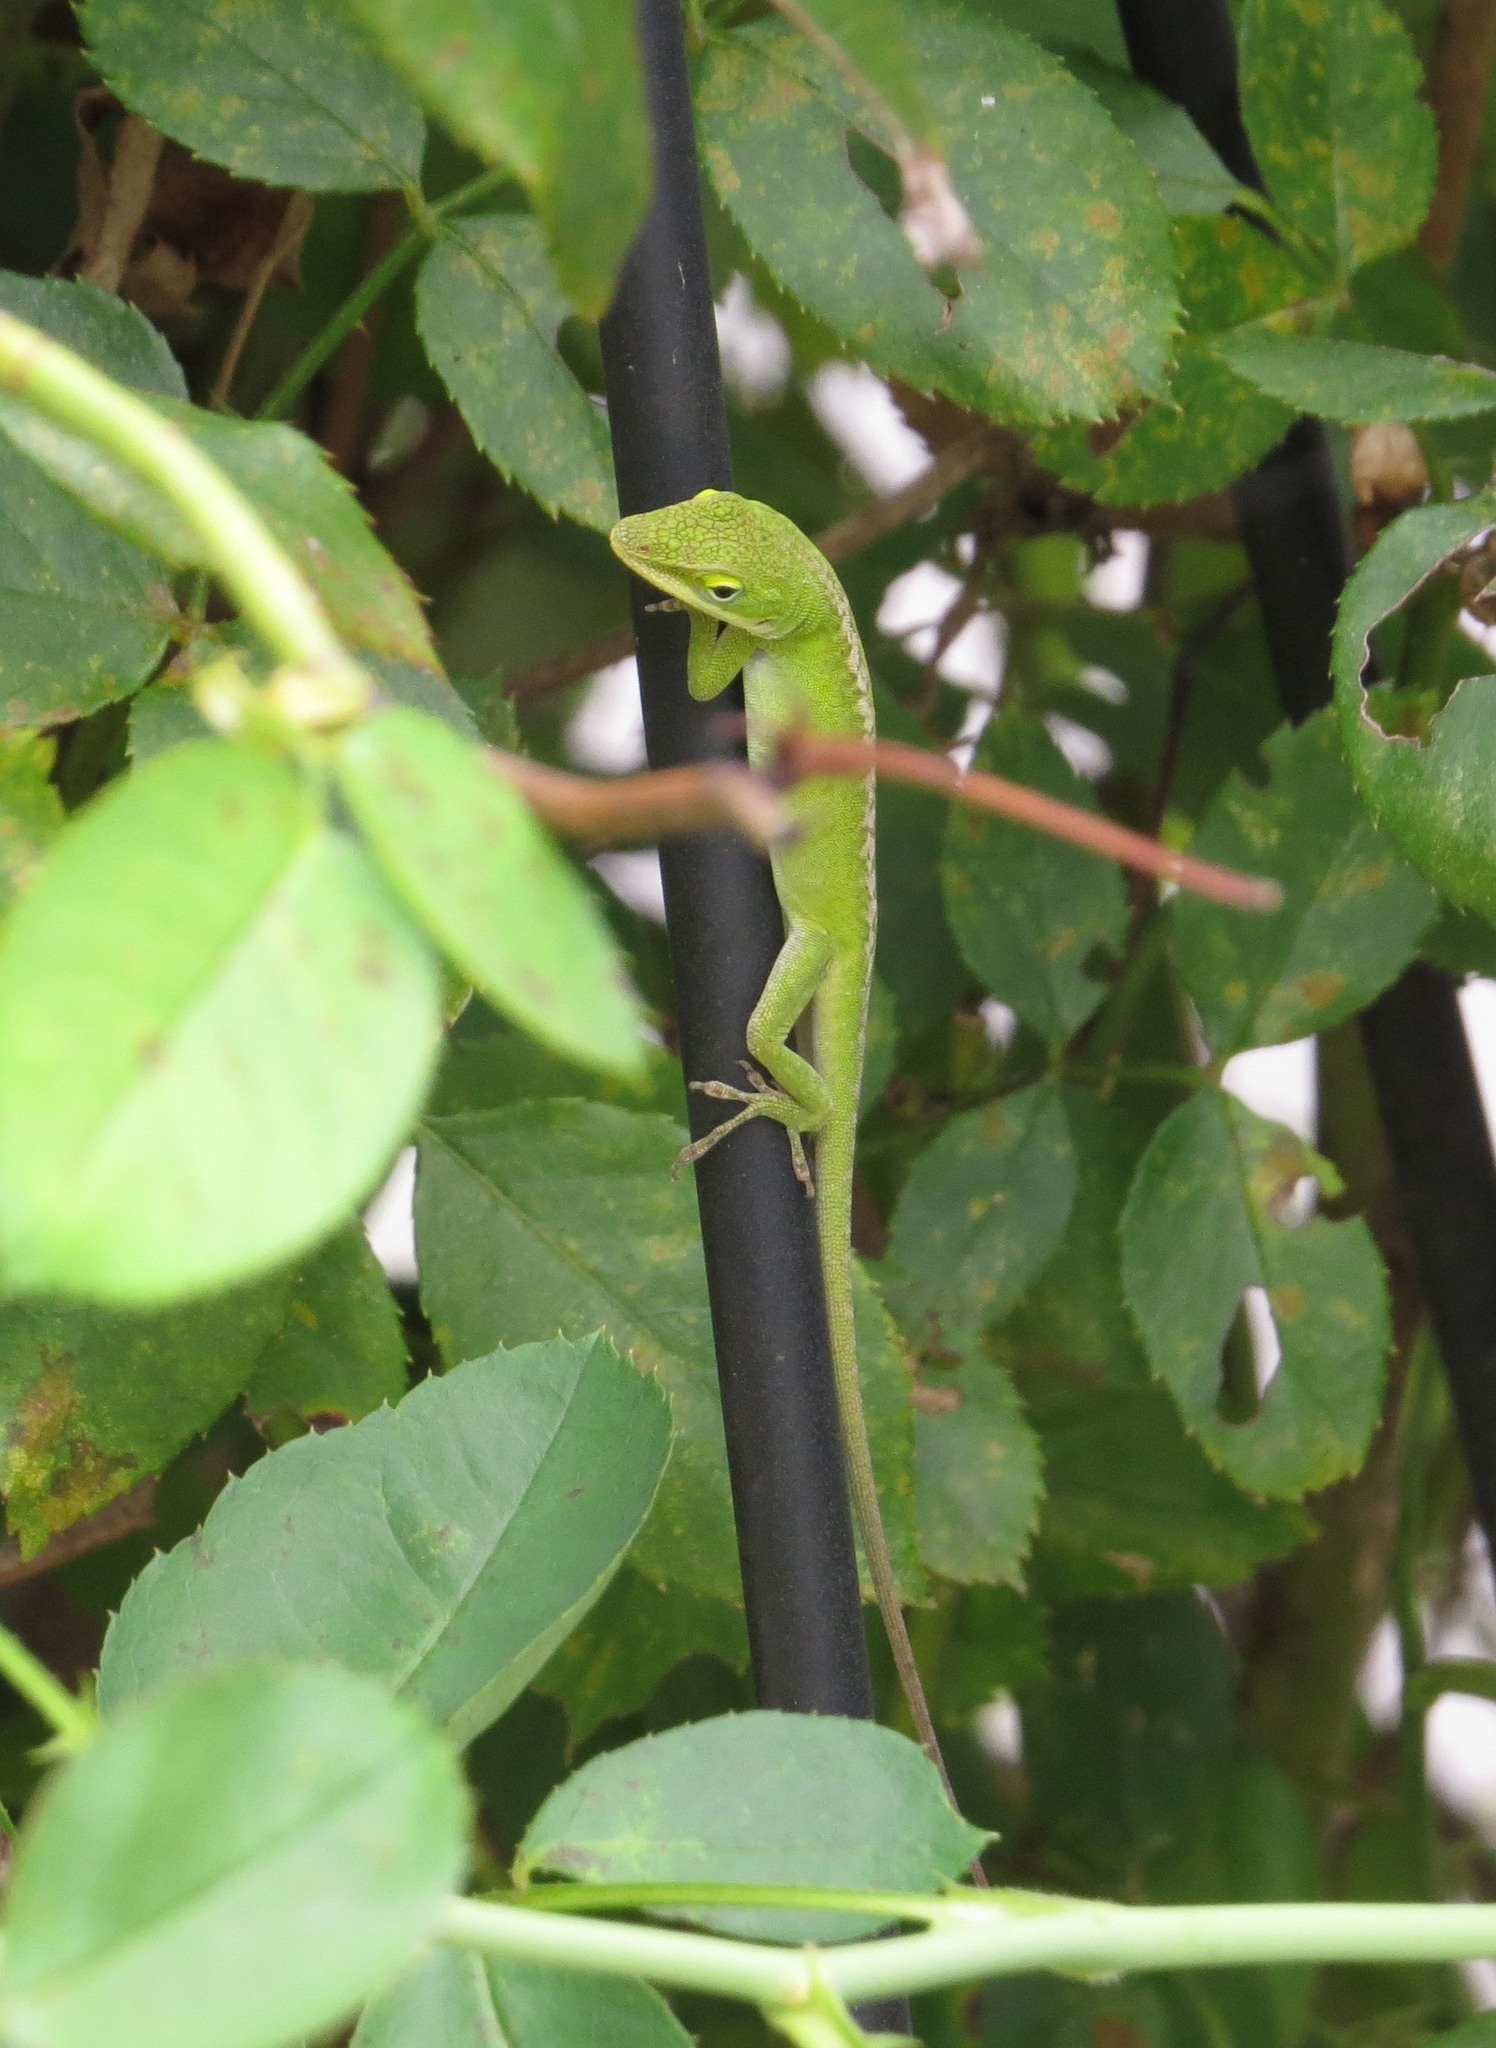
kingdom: Animalia
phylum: Chordata
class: Squamata
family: Dactyloidae
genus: Anolis
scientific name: Anolis carolinensis
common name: Green anole
